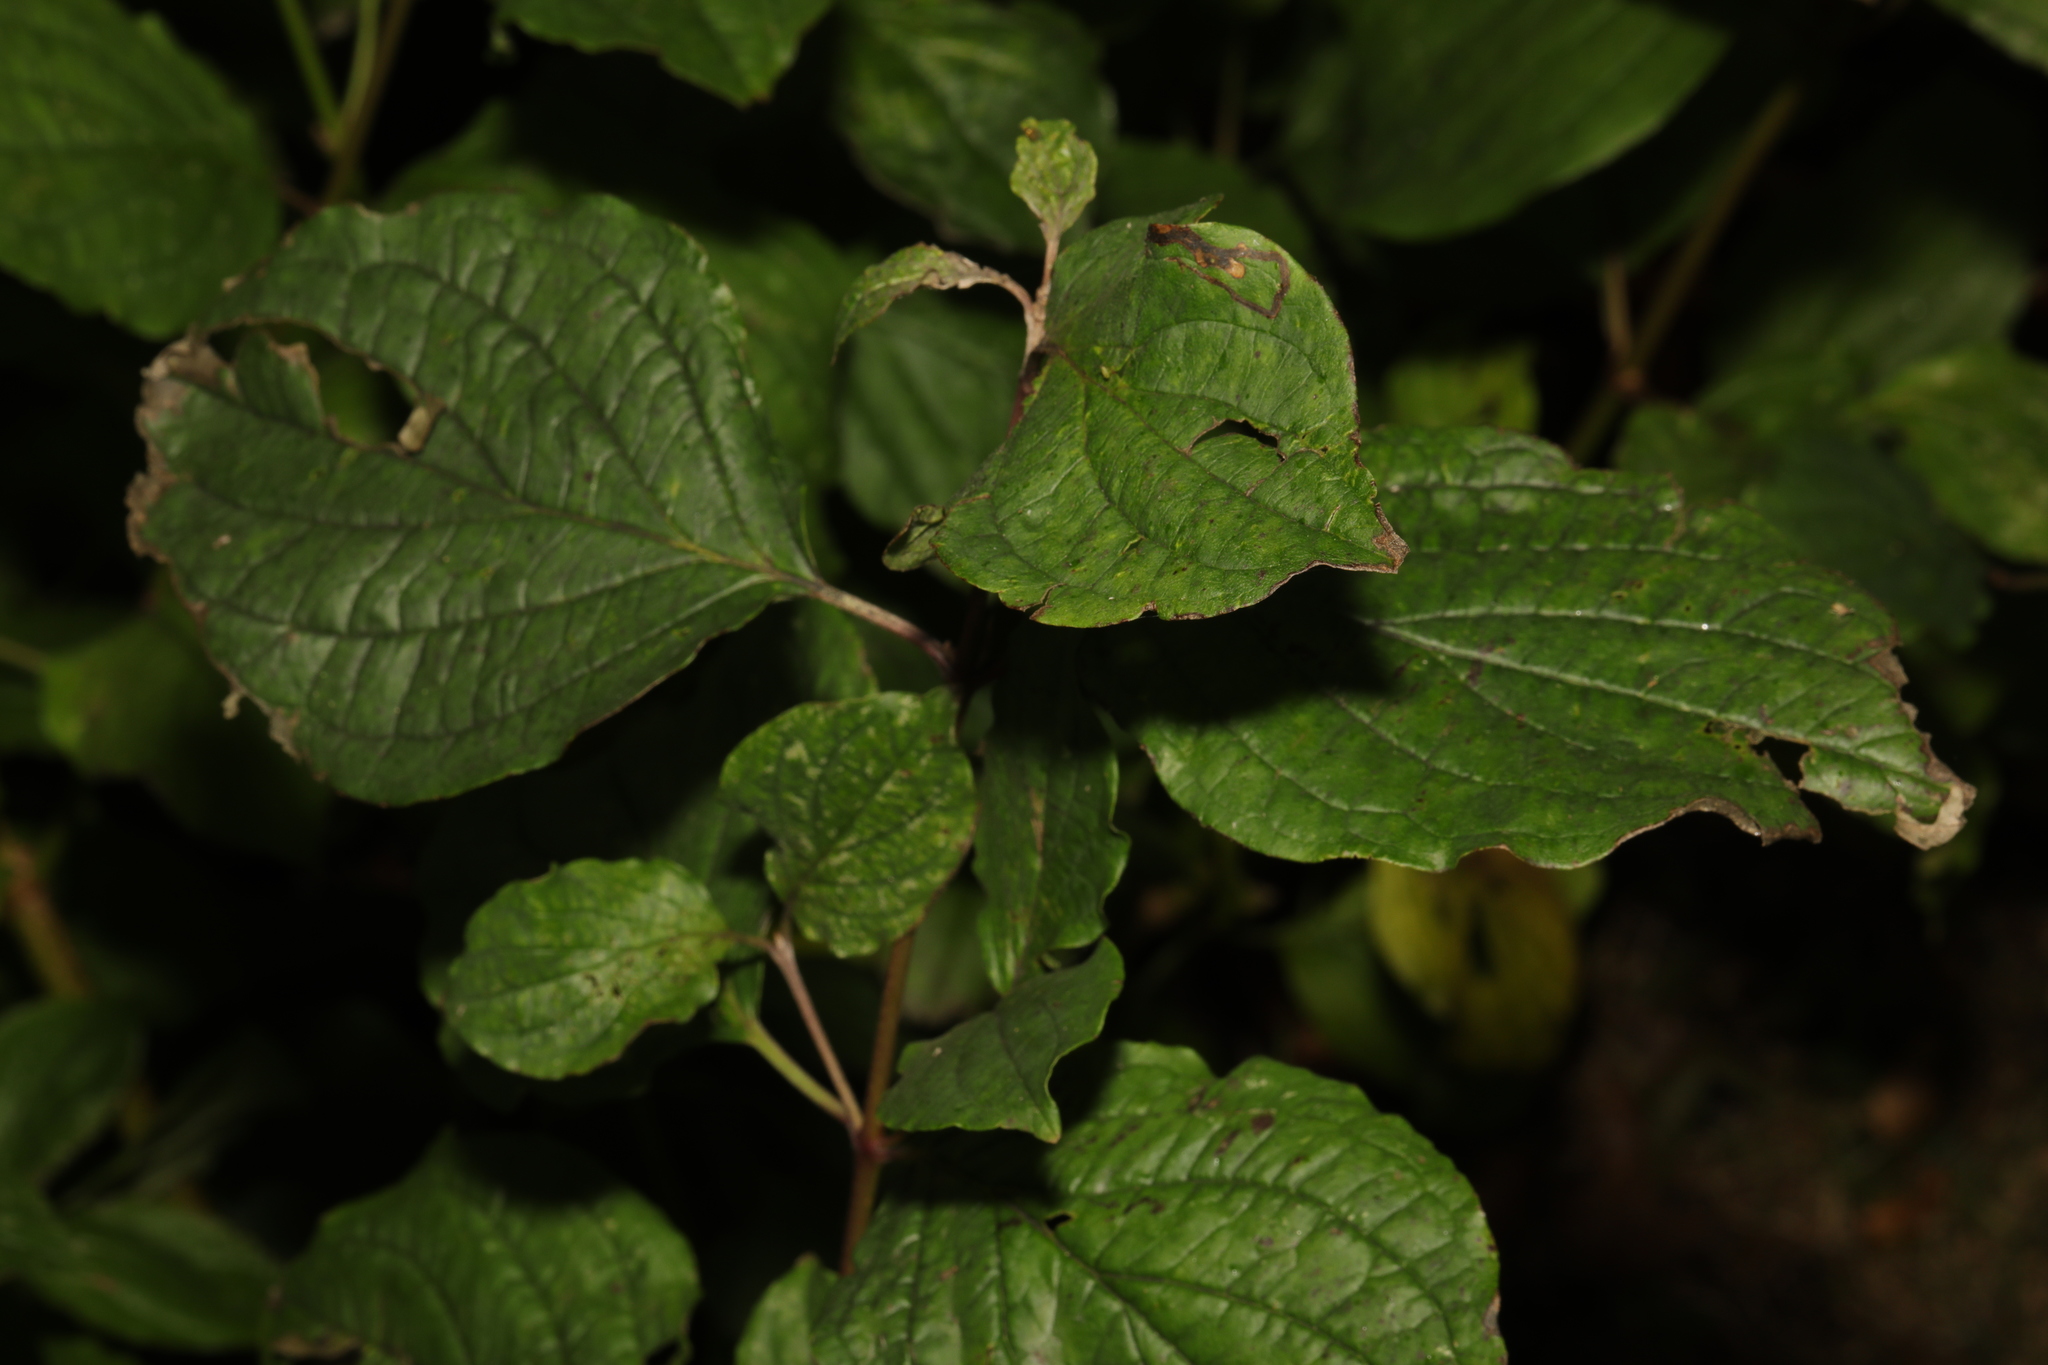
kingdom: Plantae
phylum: Tracheophyta
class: Magnoliopsida
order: Cornales
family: Cornaceae
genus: Cornus
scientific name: Cornus sanguinea
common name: Dogwood
